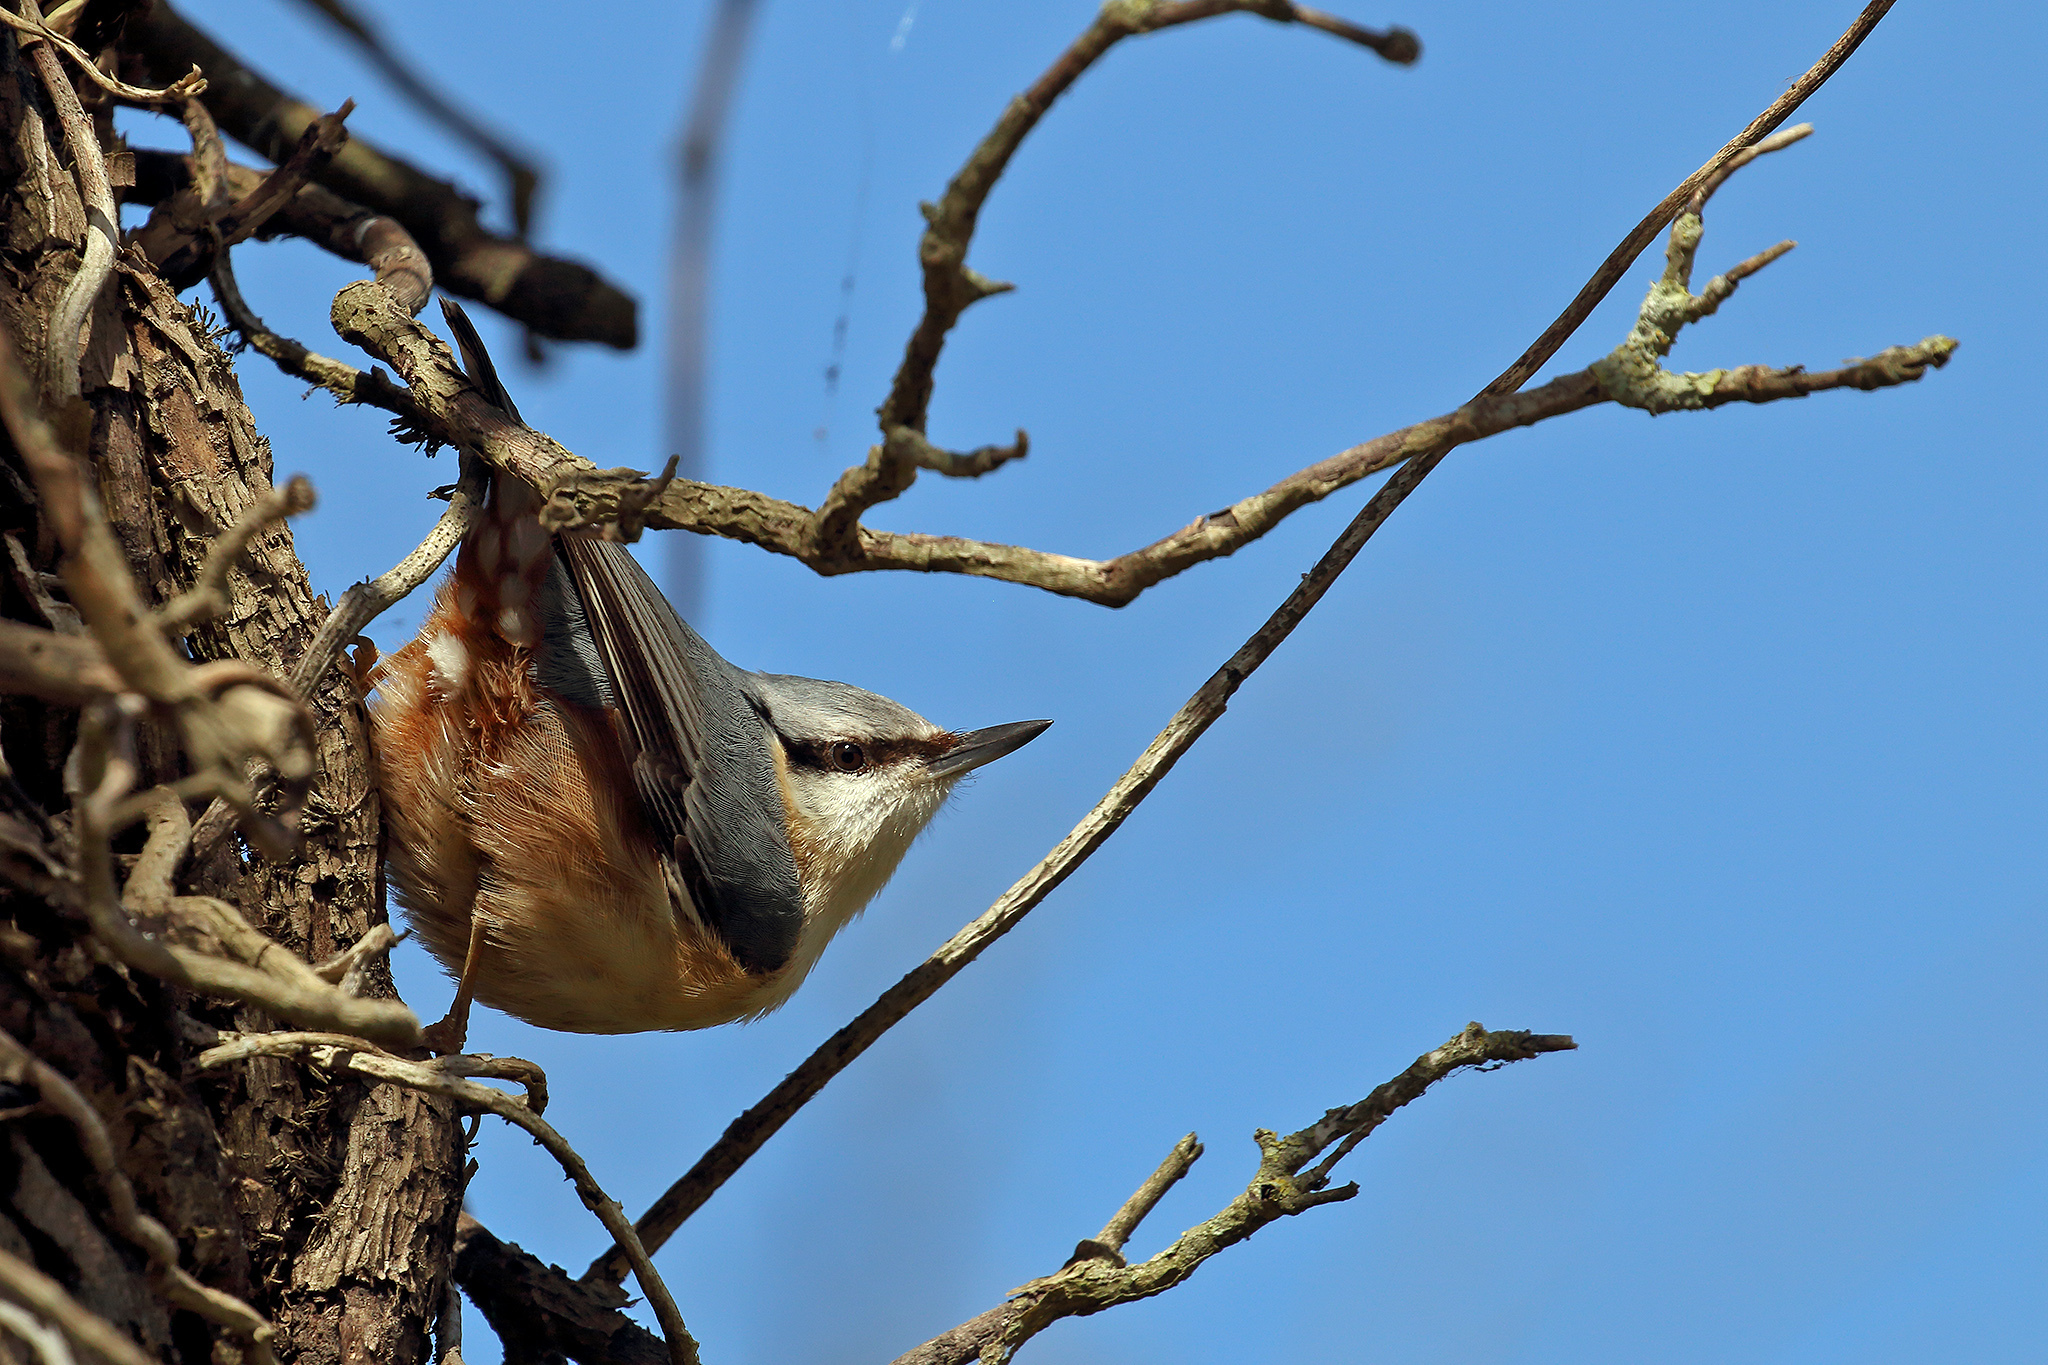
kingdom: Animalia
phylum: Chordata
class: Aves
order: Passeriformes
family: Sittidae
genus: Sitta
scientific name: Sitta europaea
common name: Eurasian nuthatch
